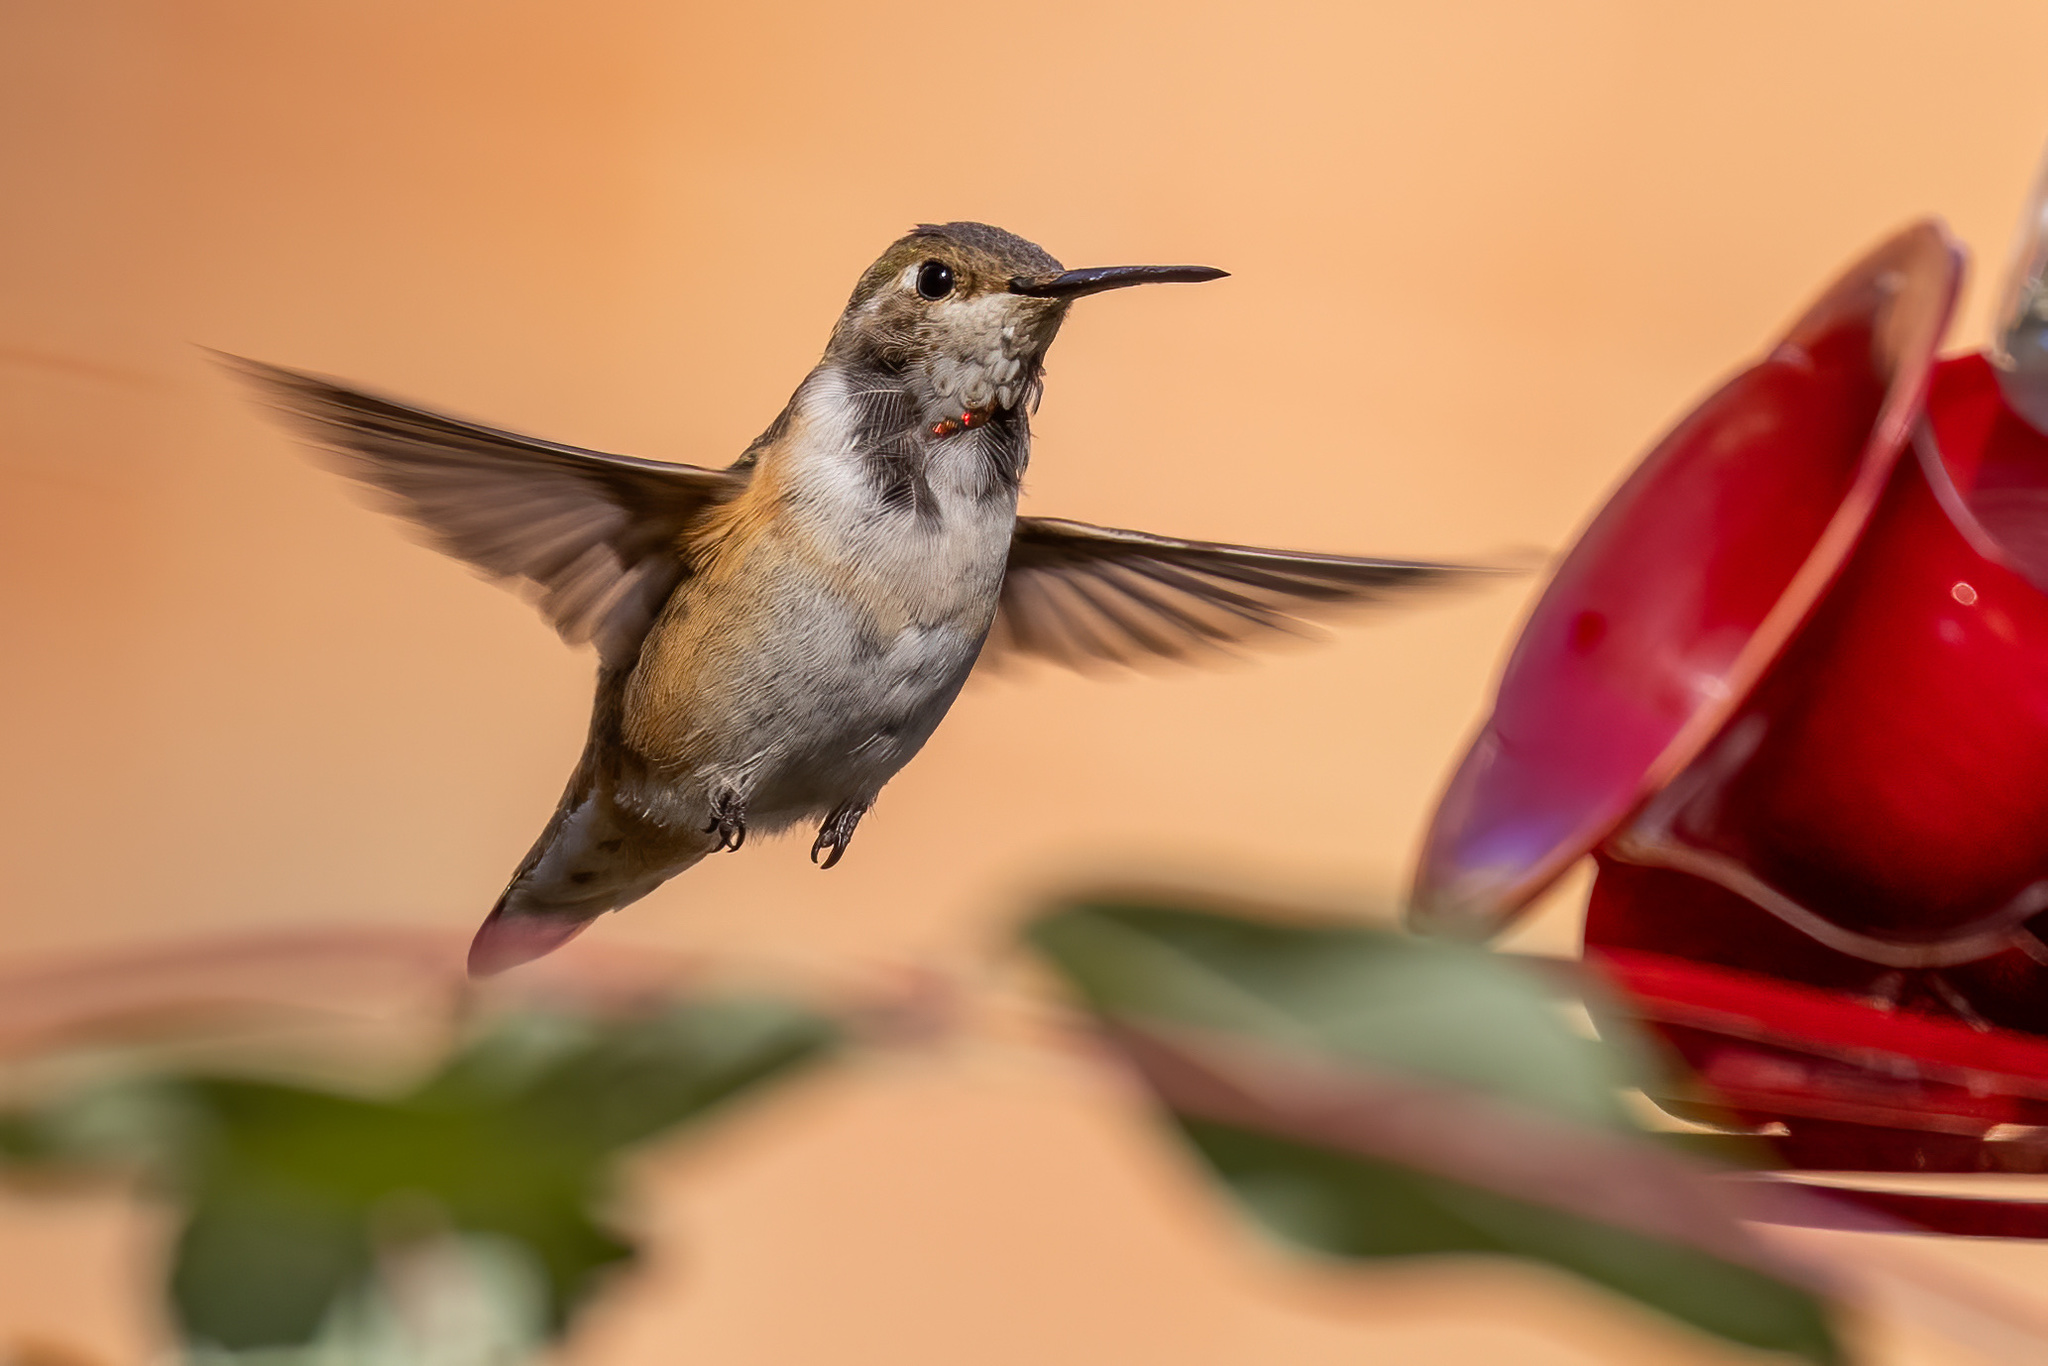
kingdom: Animalia
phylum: Chordata
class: Aves
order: Apodiformes
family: Trochilidae
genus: Selasphorus
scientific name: Selasphorus rufus
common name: Rufous hummingbird
